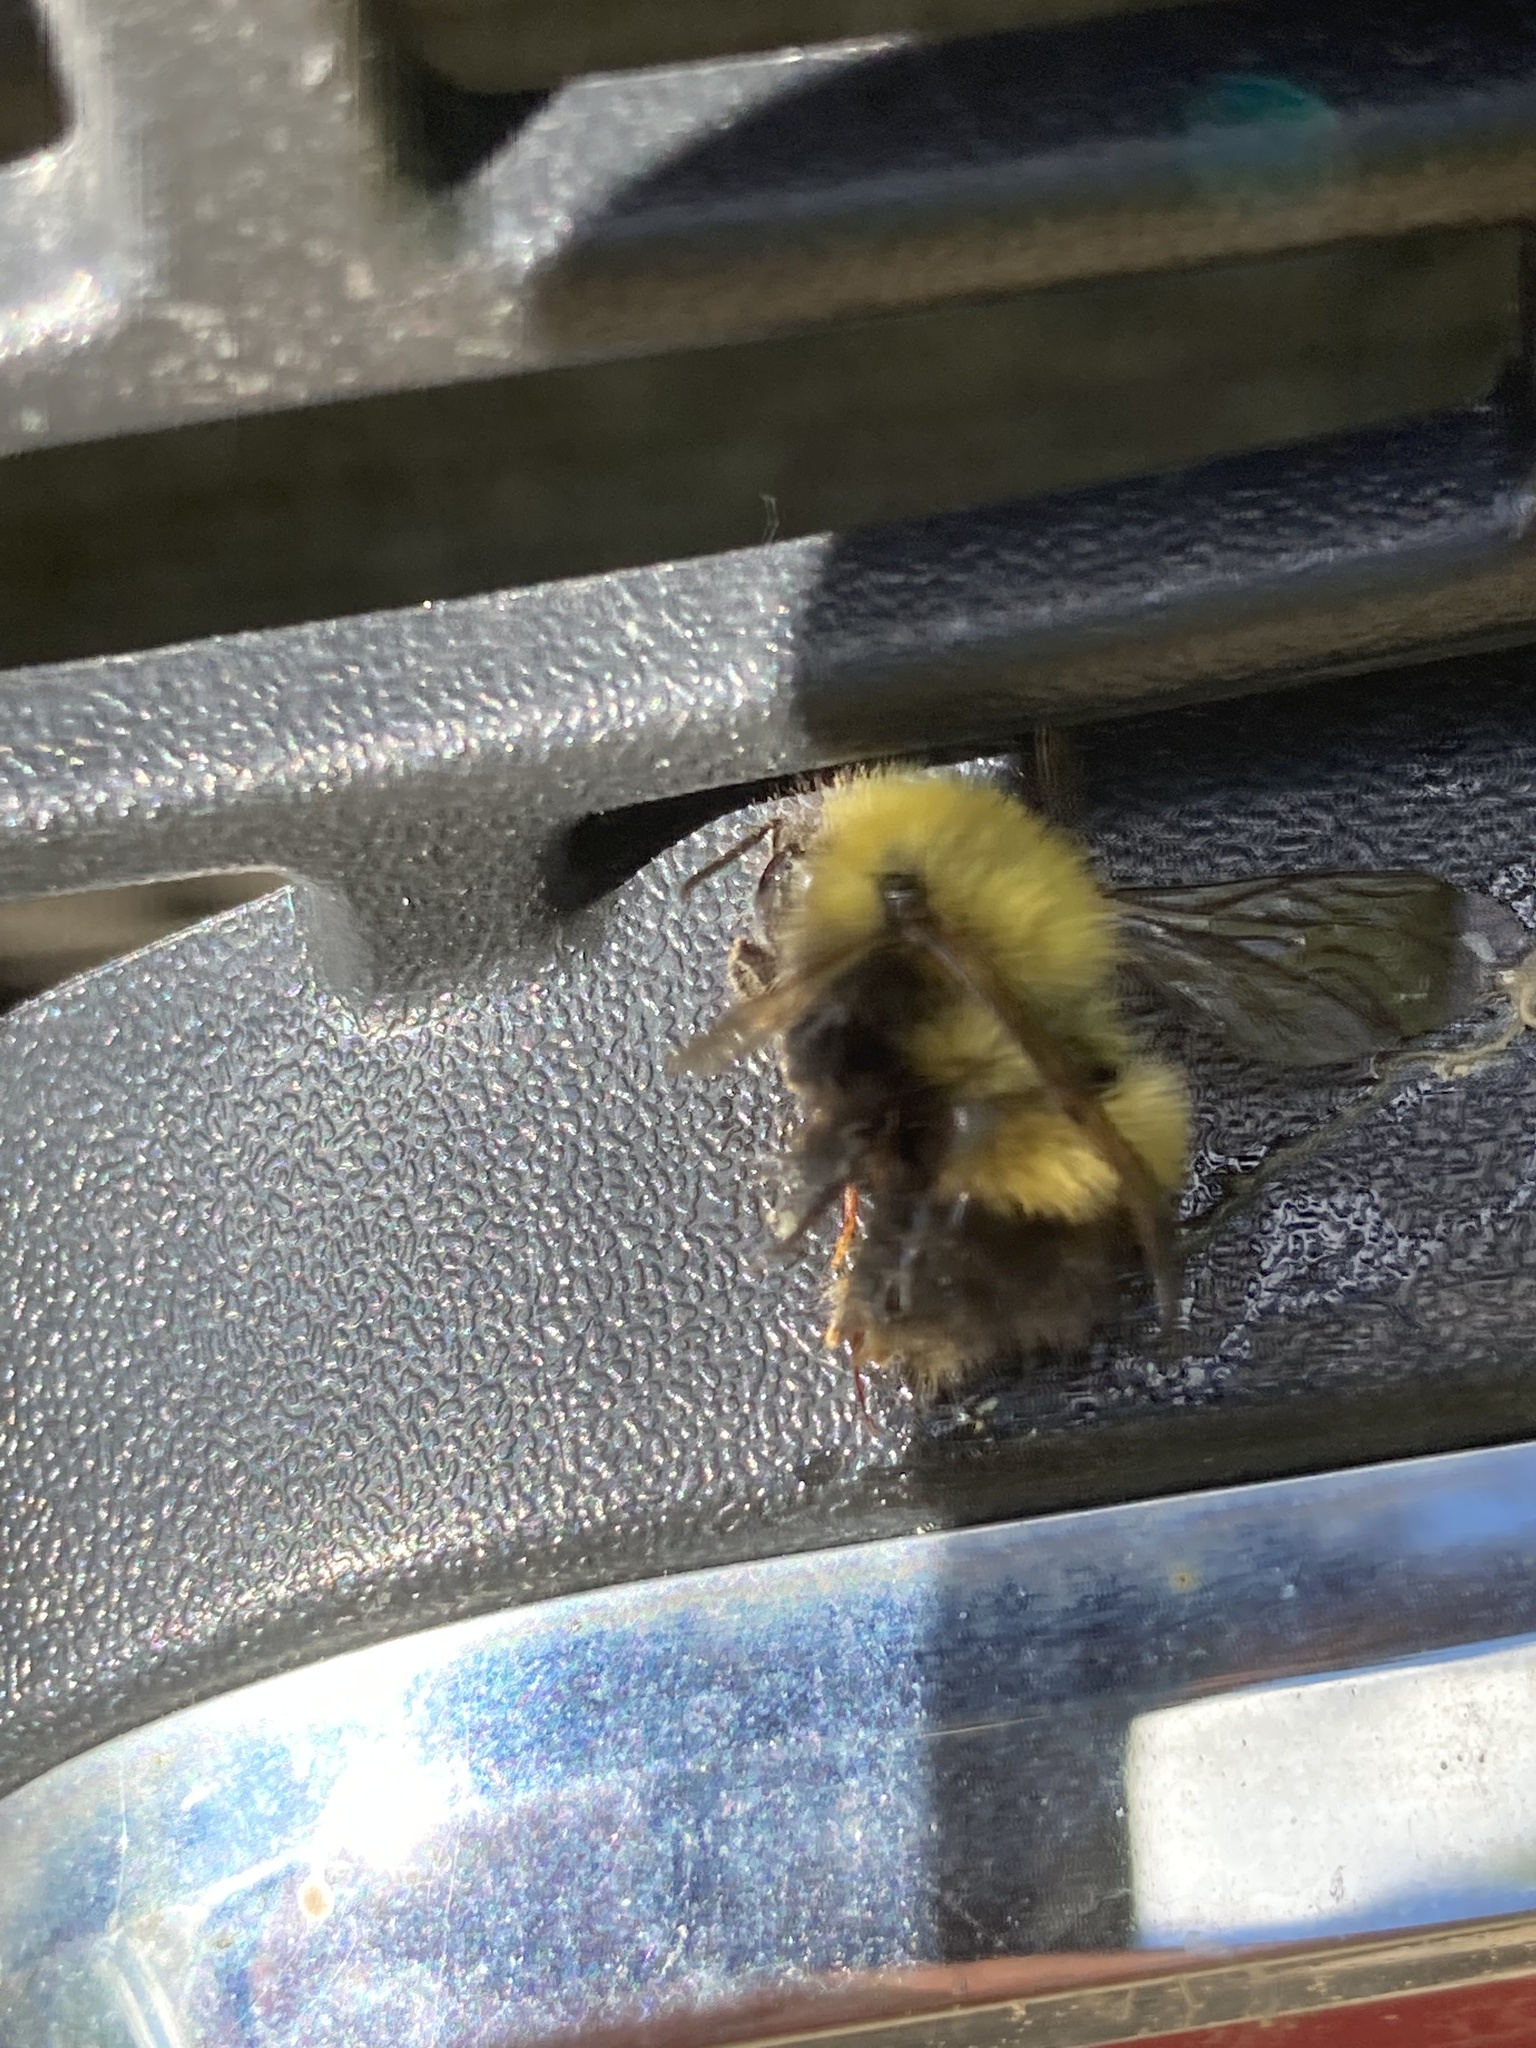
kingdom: Animalia
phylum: Arthropoda
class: Insecta
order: Hymenoptera
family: Apidae
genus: Bombus
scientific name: Bombus perplexus
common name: Confusing bumble bee
